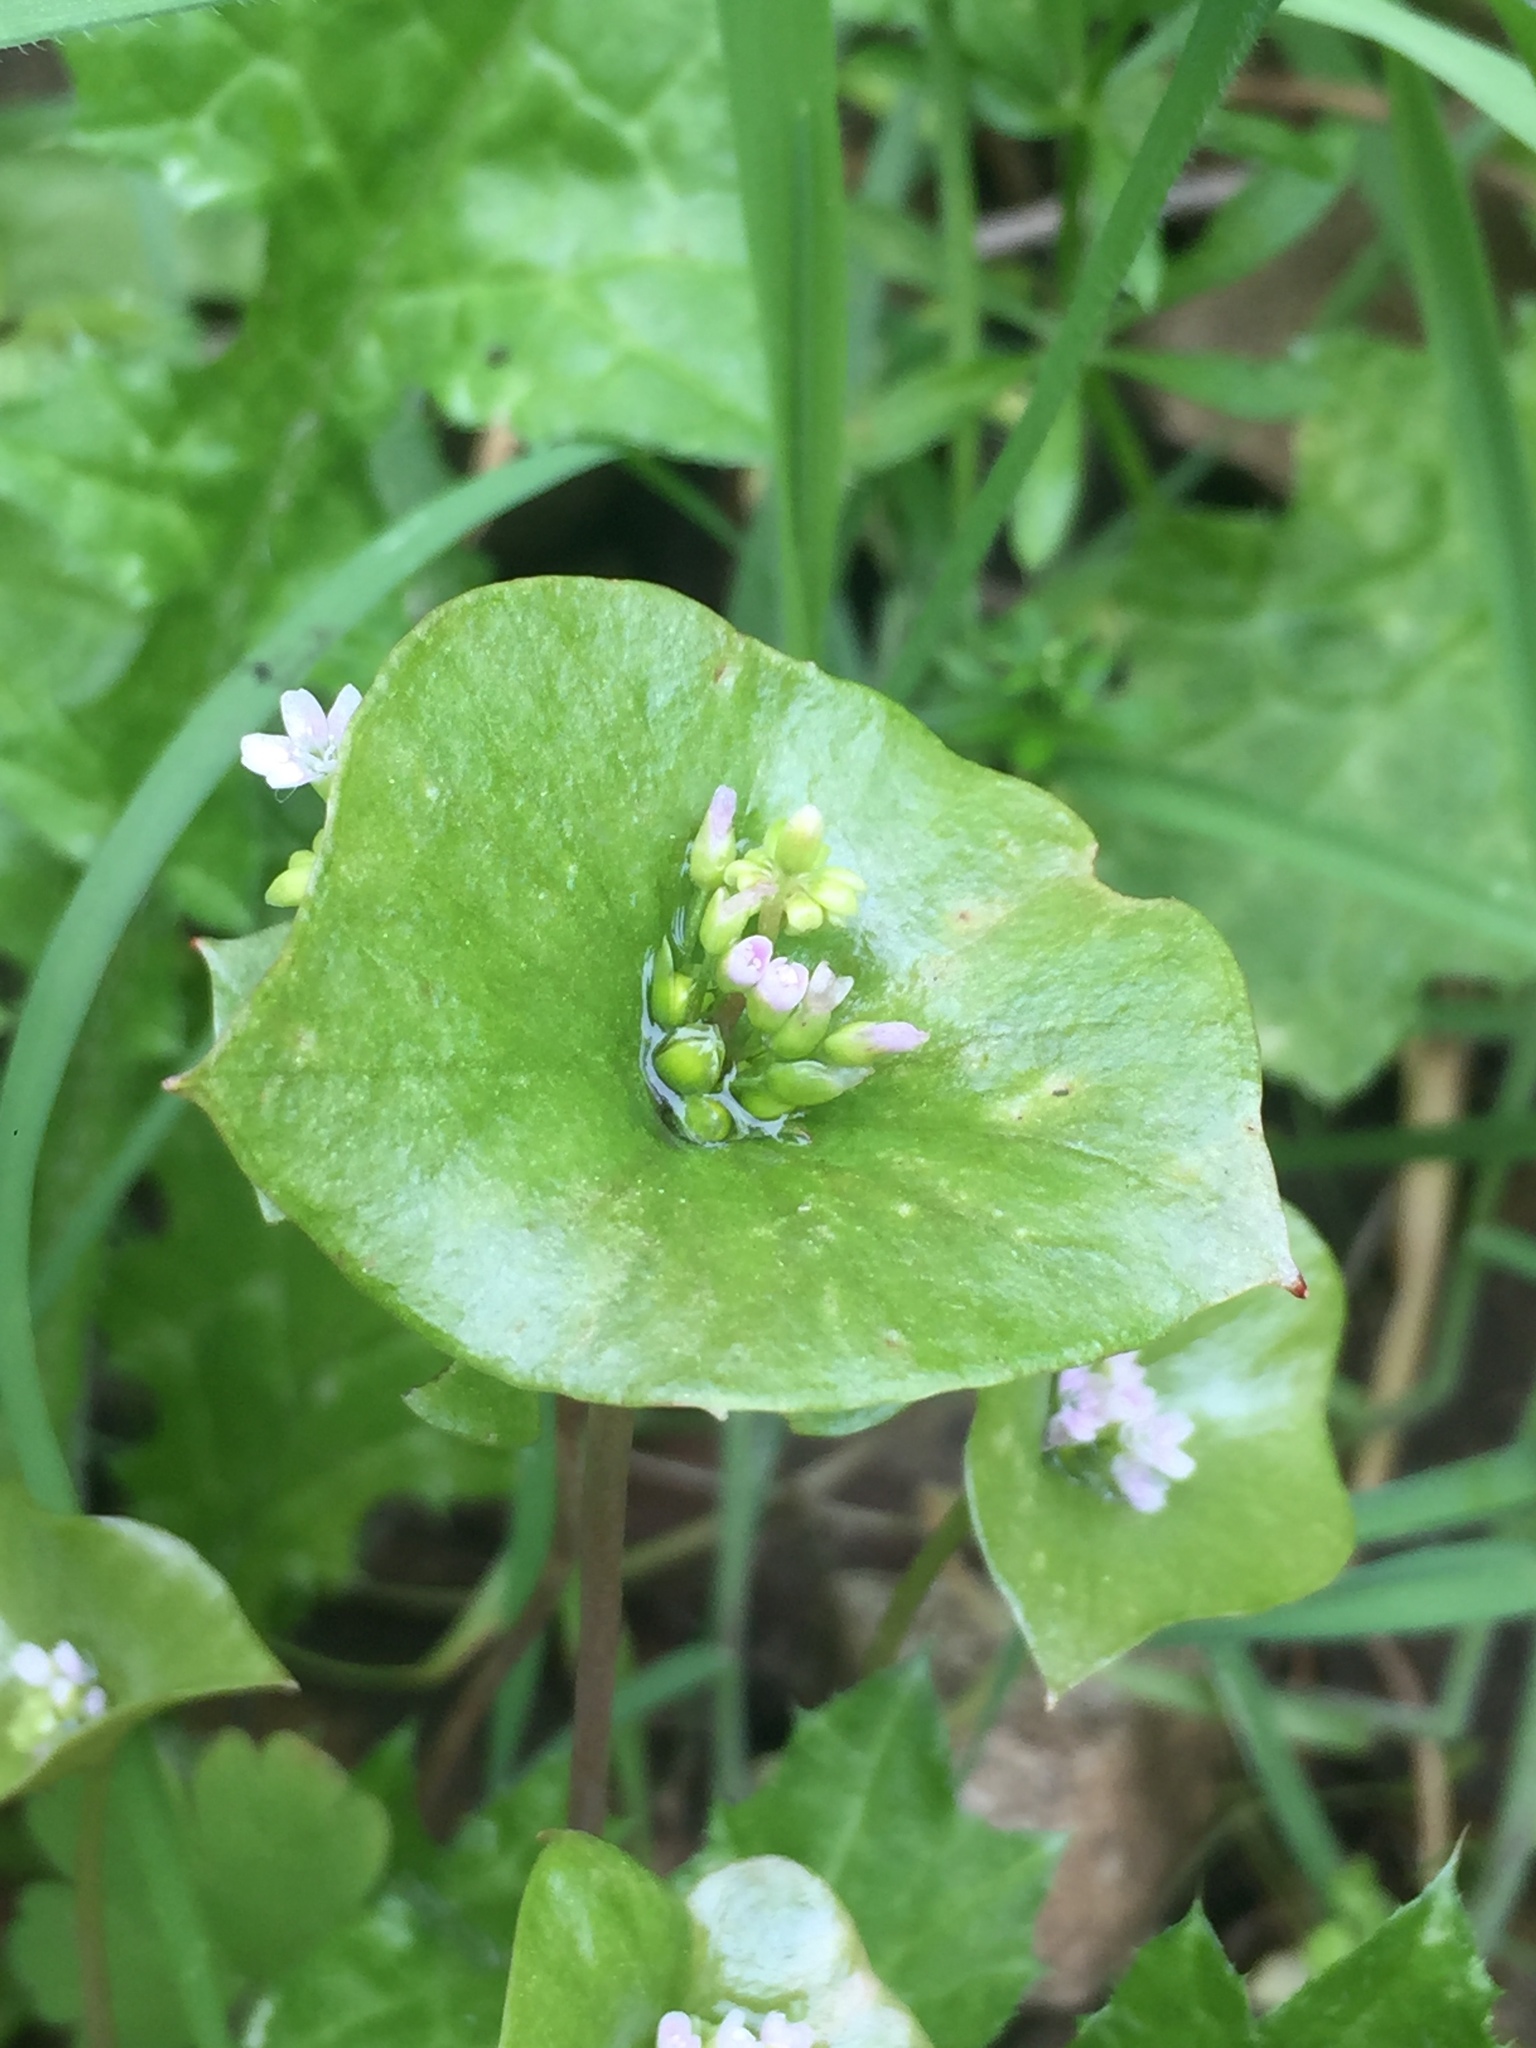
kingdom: Plantae
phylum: Tracheophyta
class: Magnoliopsida
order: Caryophyllales
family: Montiaceae
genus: Claytonia
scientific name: Claytonia perfoliata
